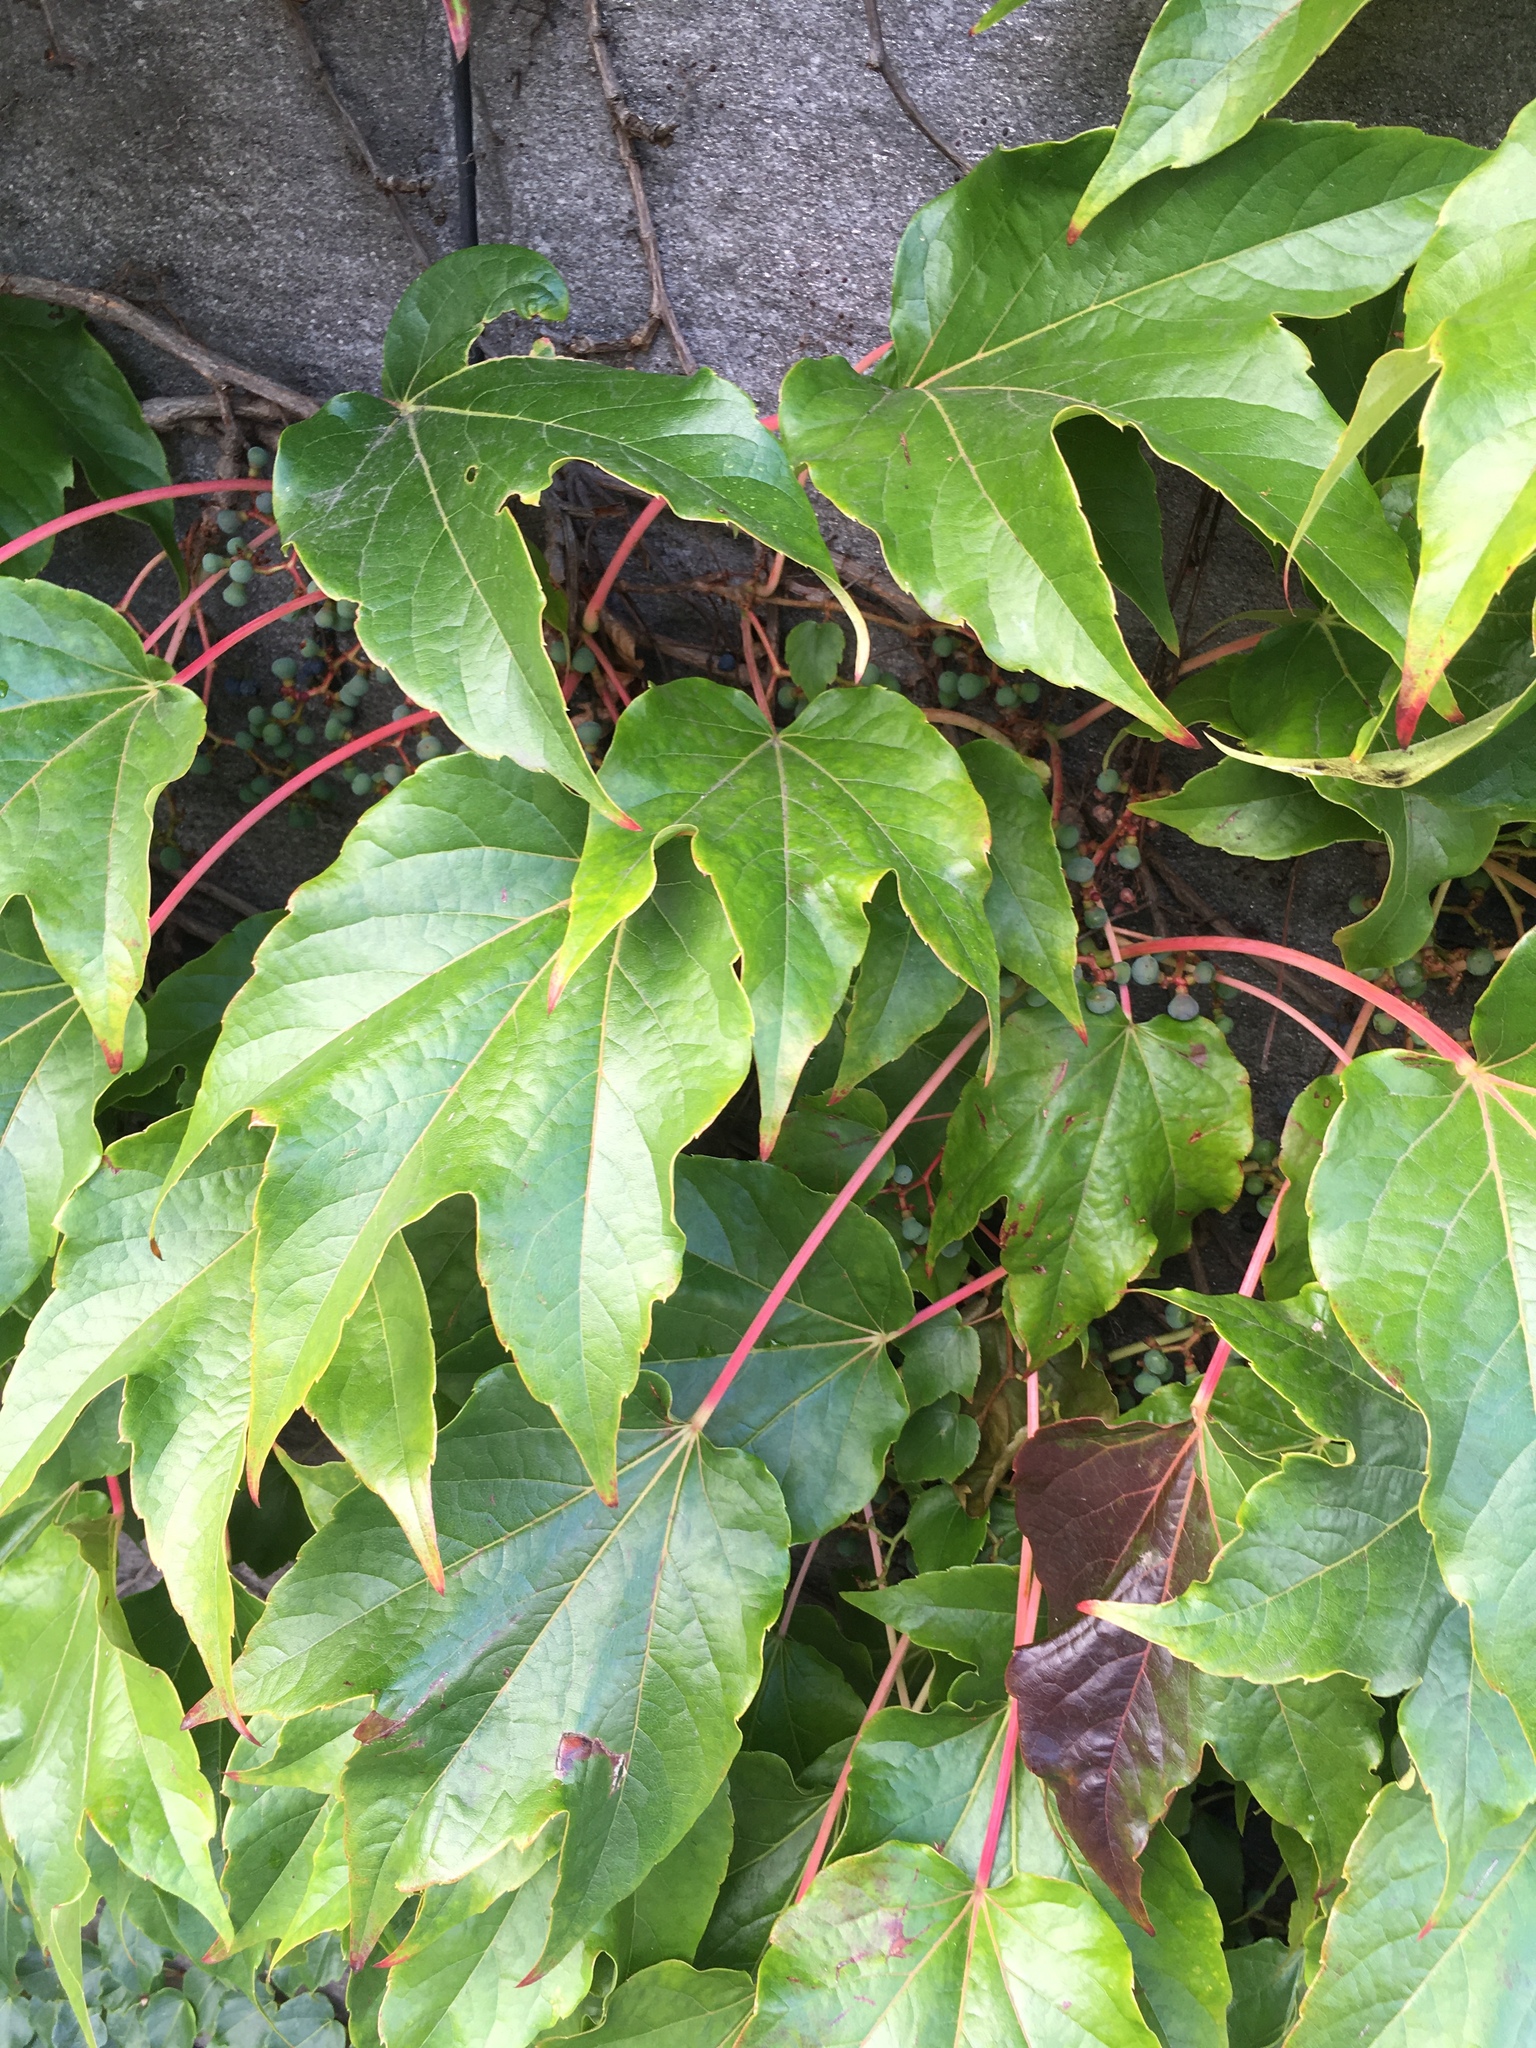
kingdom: Plantae
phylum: Tracheophyta
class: Magnoliopsida
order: Vitales
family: Vitaceae
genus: Parthenocissus
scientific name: Parthenocissus tricuspidata
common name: Boston ivy
